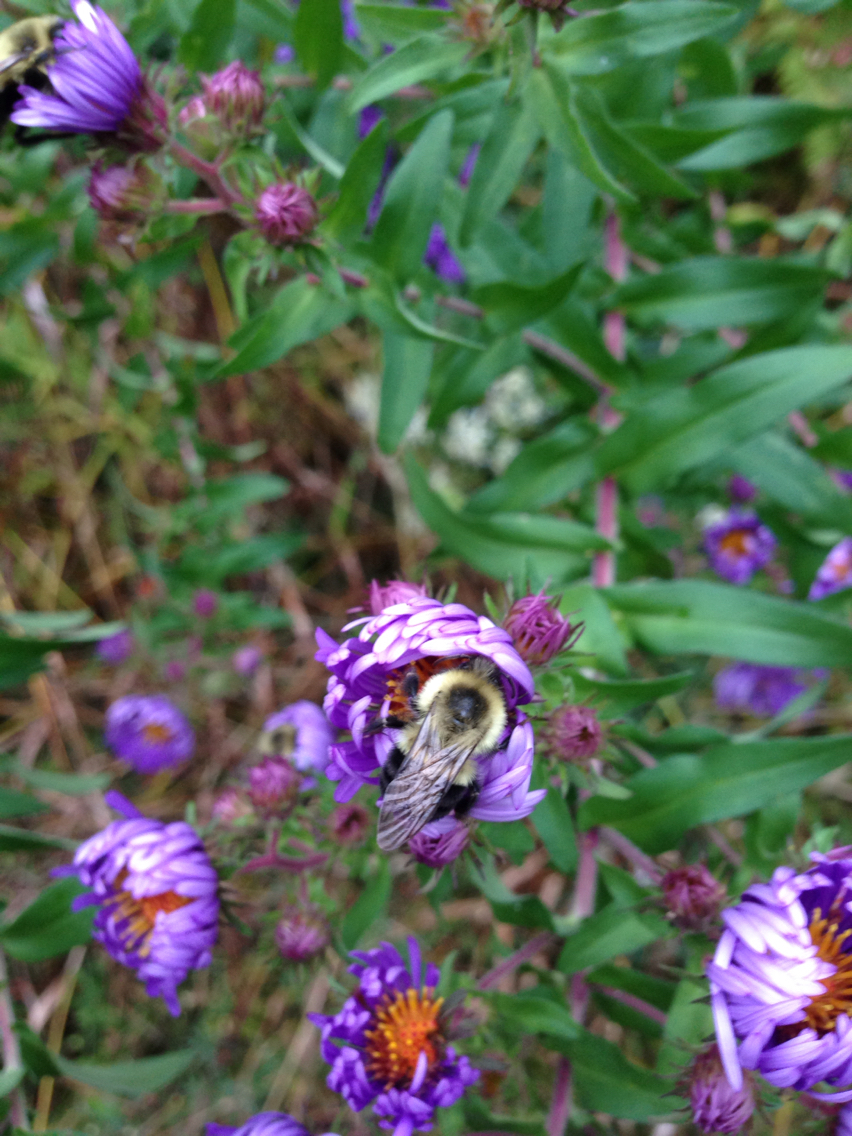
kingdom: Animalia
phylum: Arthropoda
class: Insecta
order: Hymenoptera
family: Apidae
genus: Bombus
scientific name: Bombus impatiens
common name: Common eastern bumble bee
